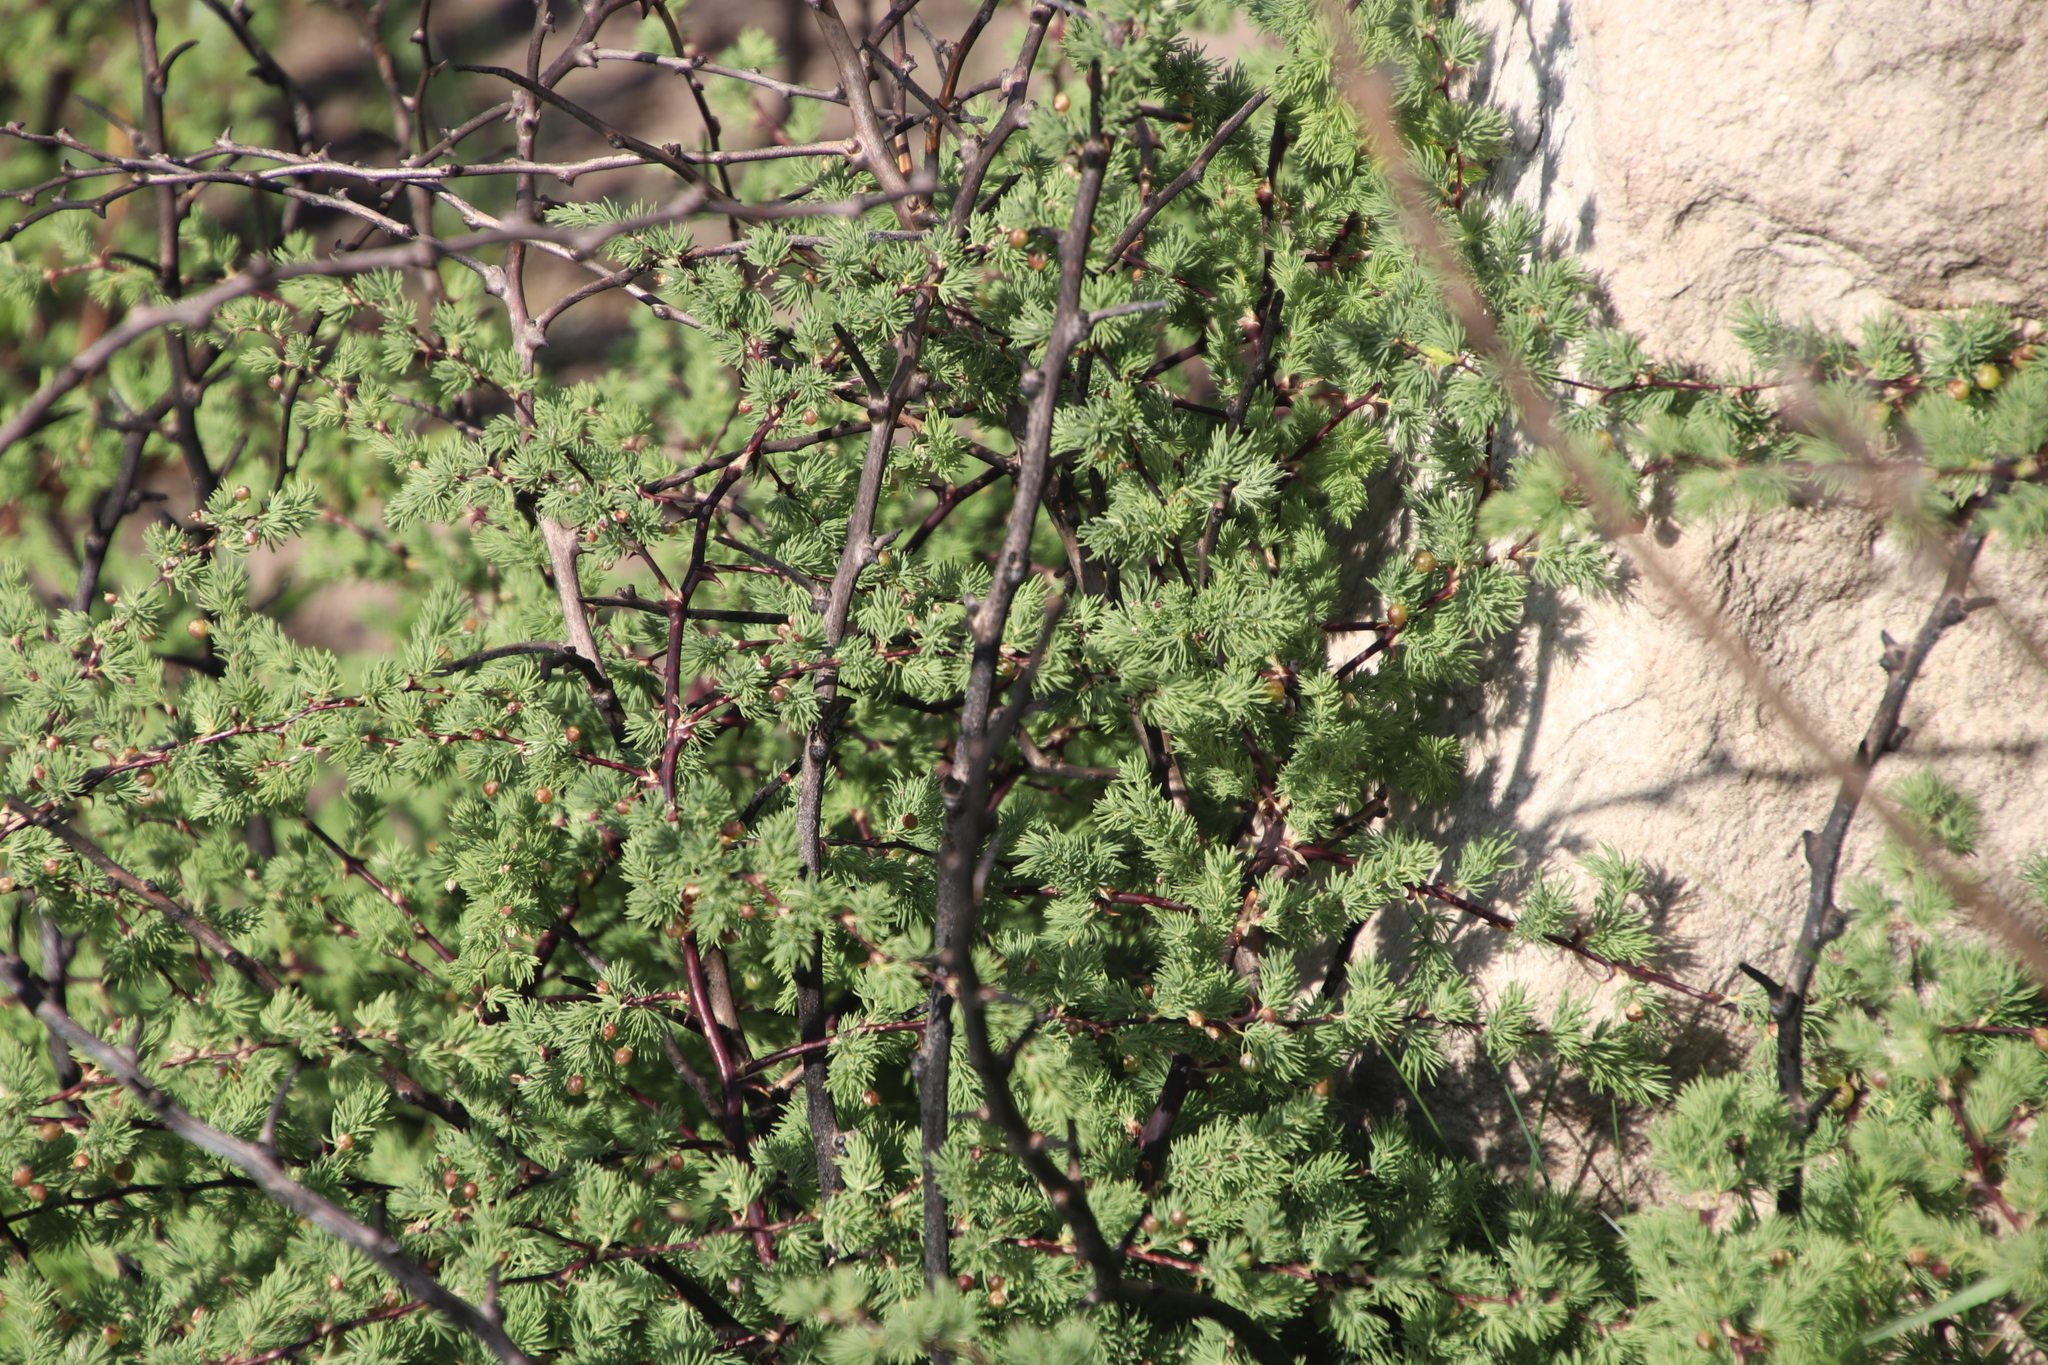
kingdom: Plantae
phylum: Tracheophyta
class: Liliopsida
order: Asparagales
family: Asparagaceae
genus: Asparagus
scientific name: Asparagus rubicundus
